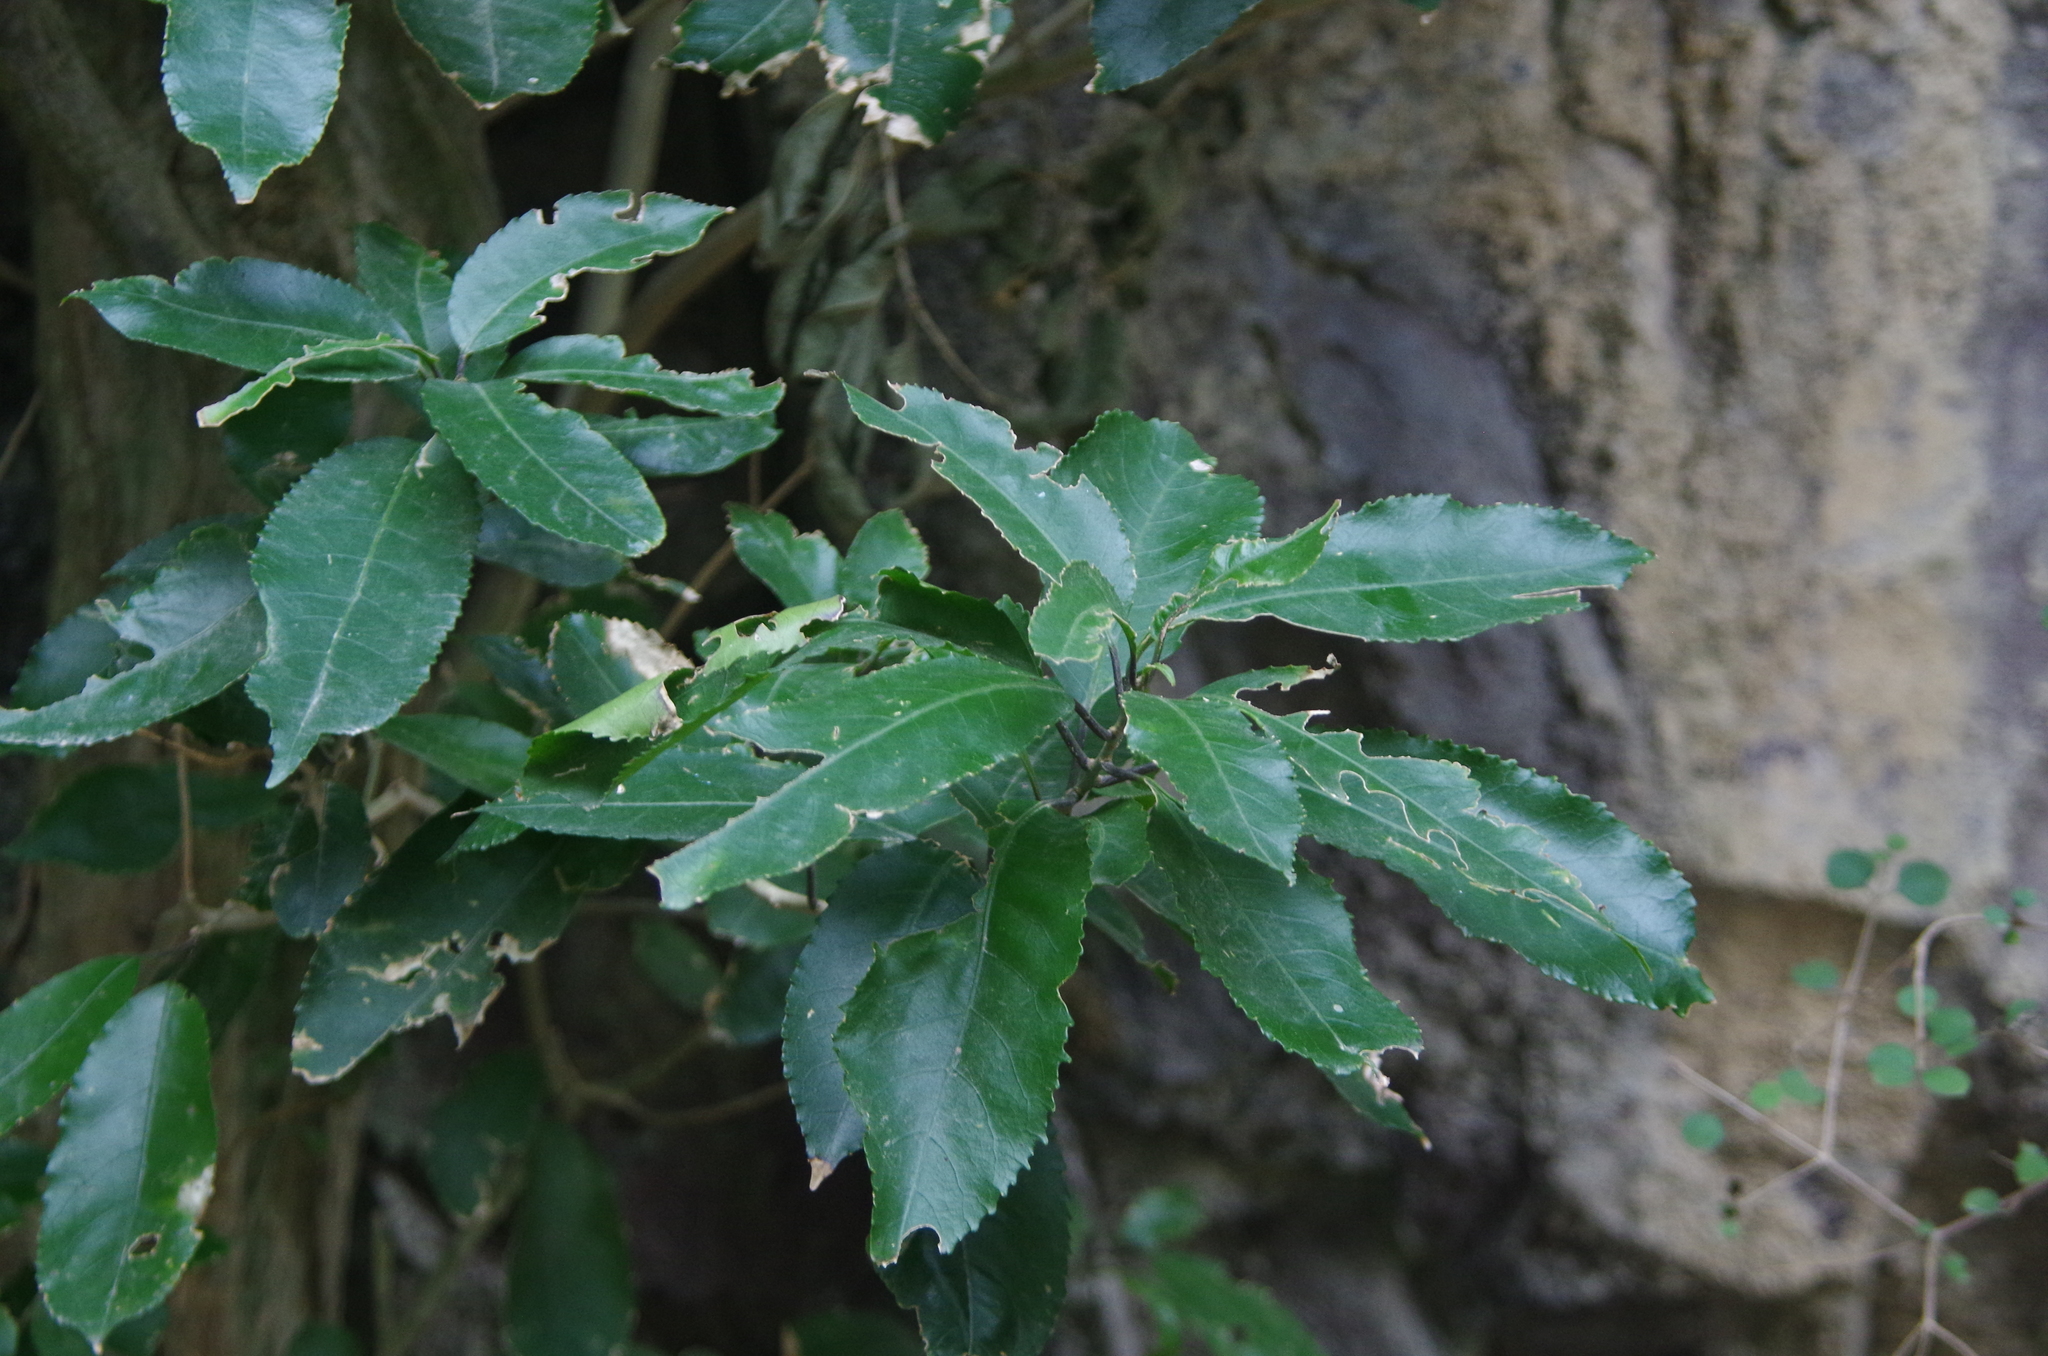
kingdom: Plantae
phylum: Tracheophyta
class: Magnoliopsida
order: Malpighiales
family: Violaceae
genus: Melicytus
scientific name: Melicytus ramiflorus
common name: Mahoe
